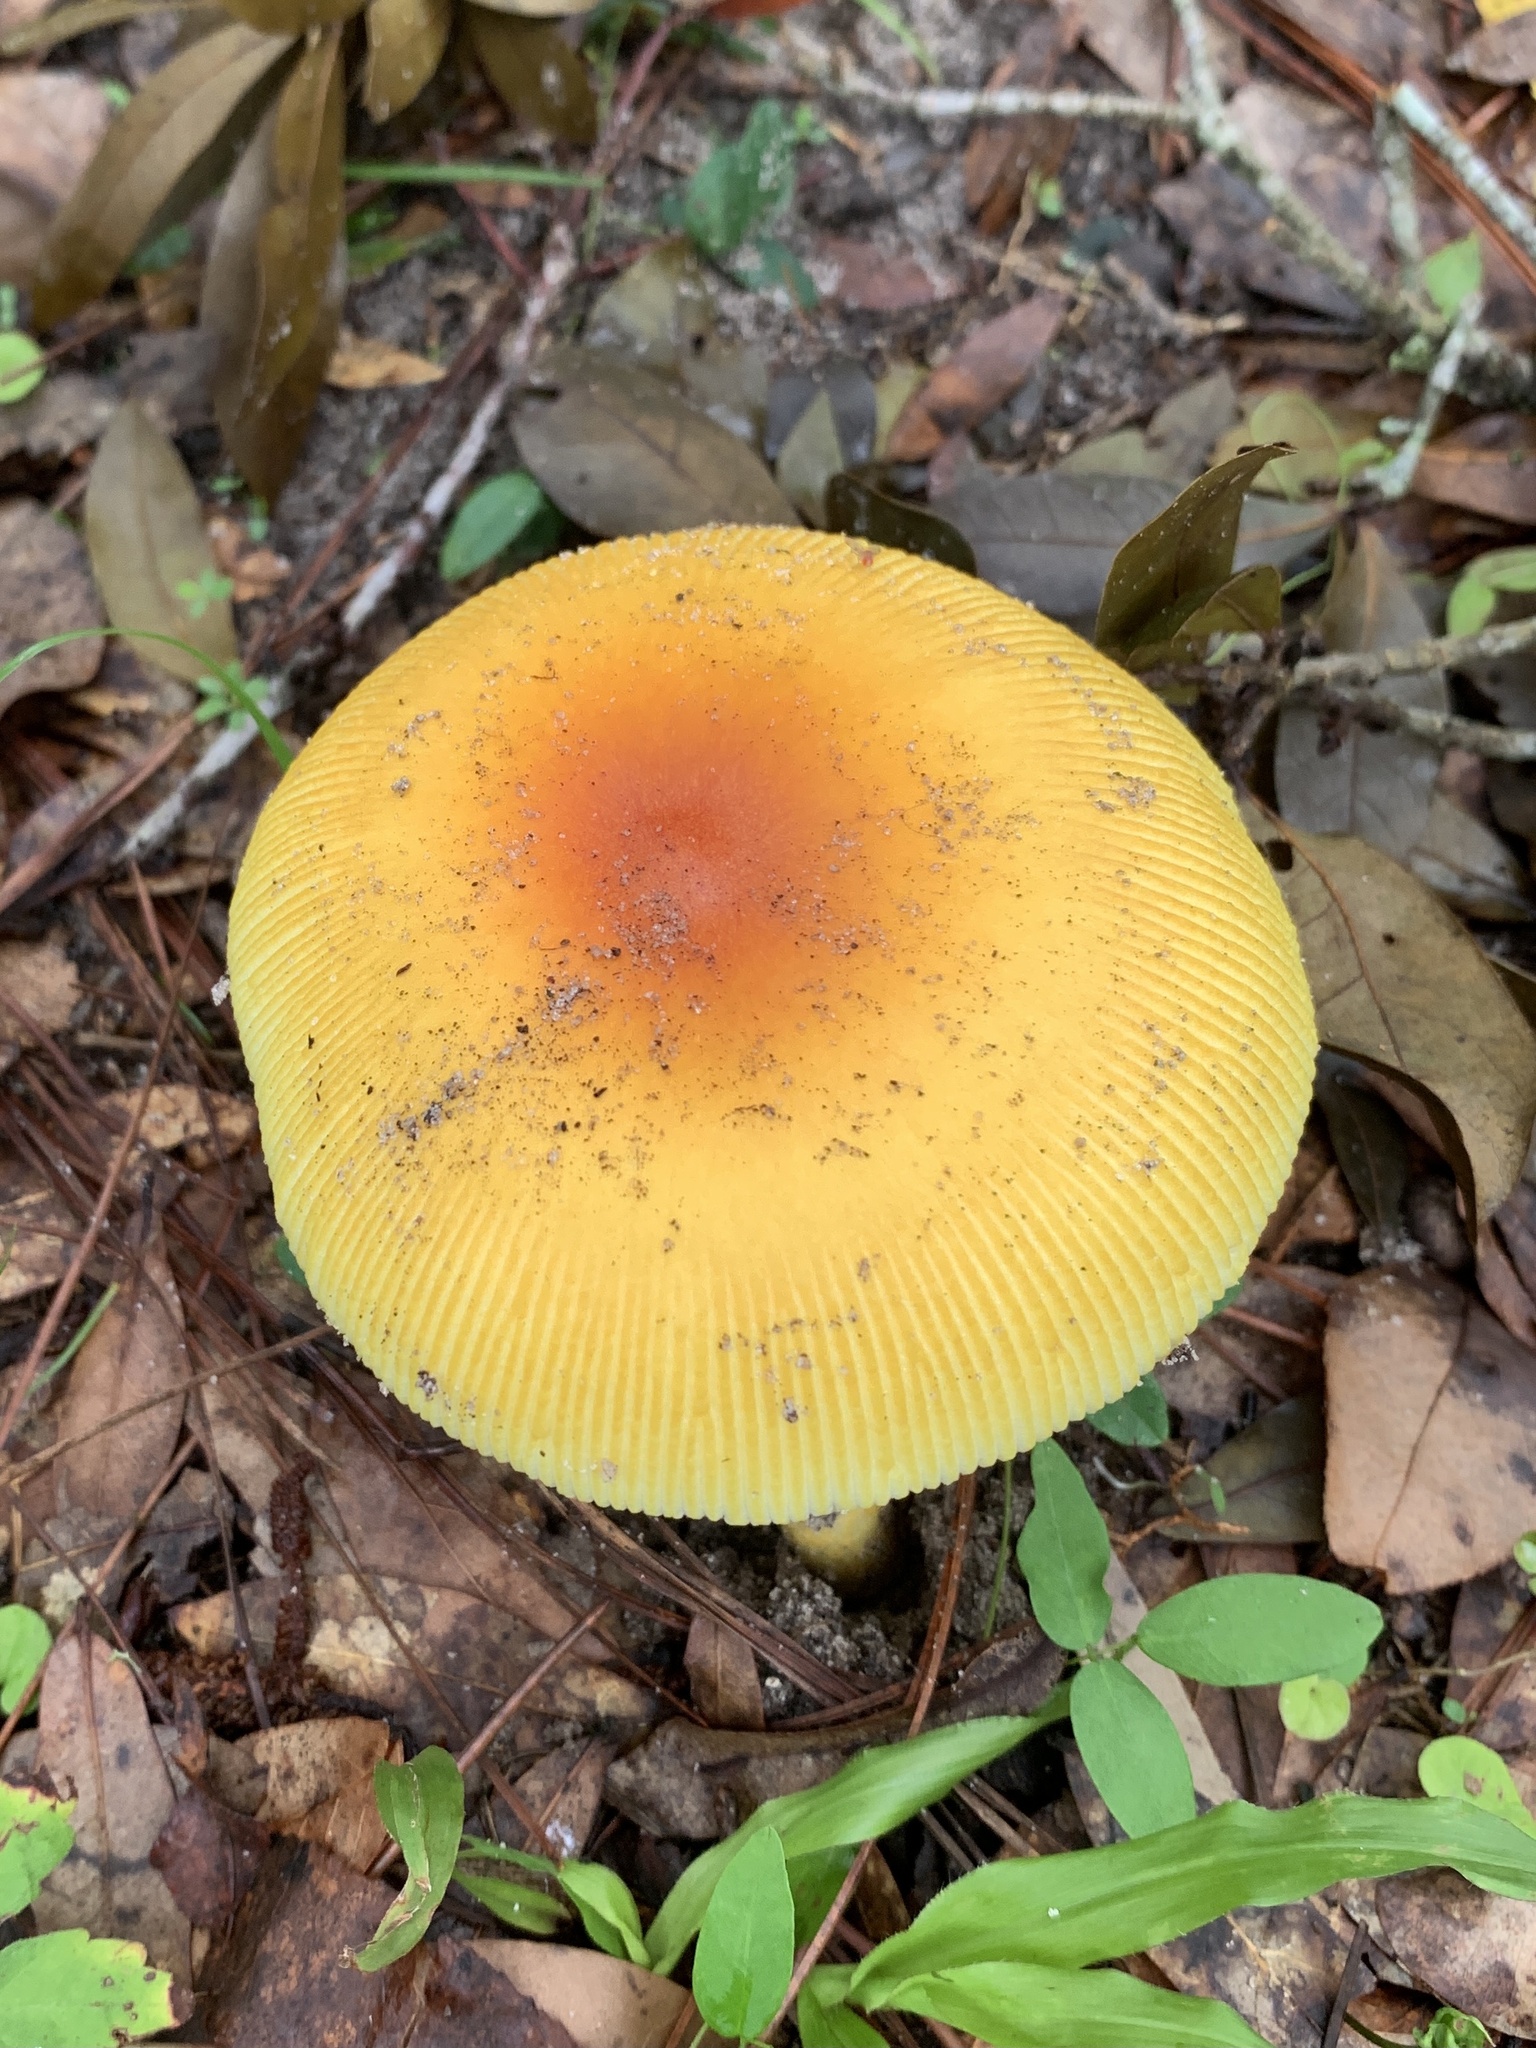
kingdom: Fungi
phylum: Basidiomycota
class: Agaricomycetes
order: Agaricales
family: Amanitaceae
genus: Amanita
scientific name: Amanita jacksonii
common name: Jackson's slender caesar
